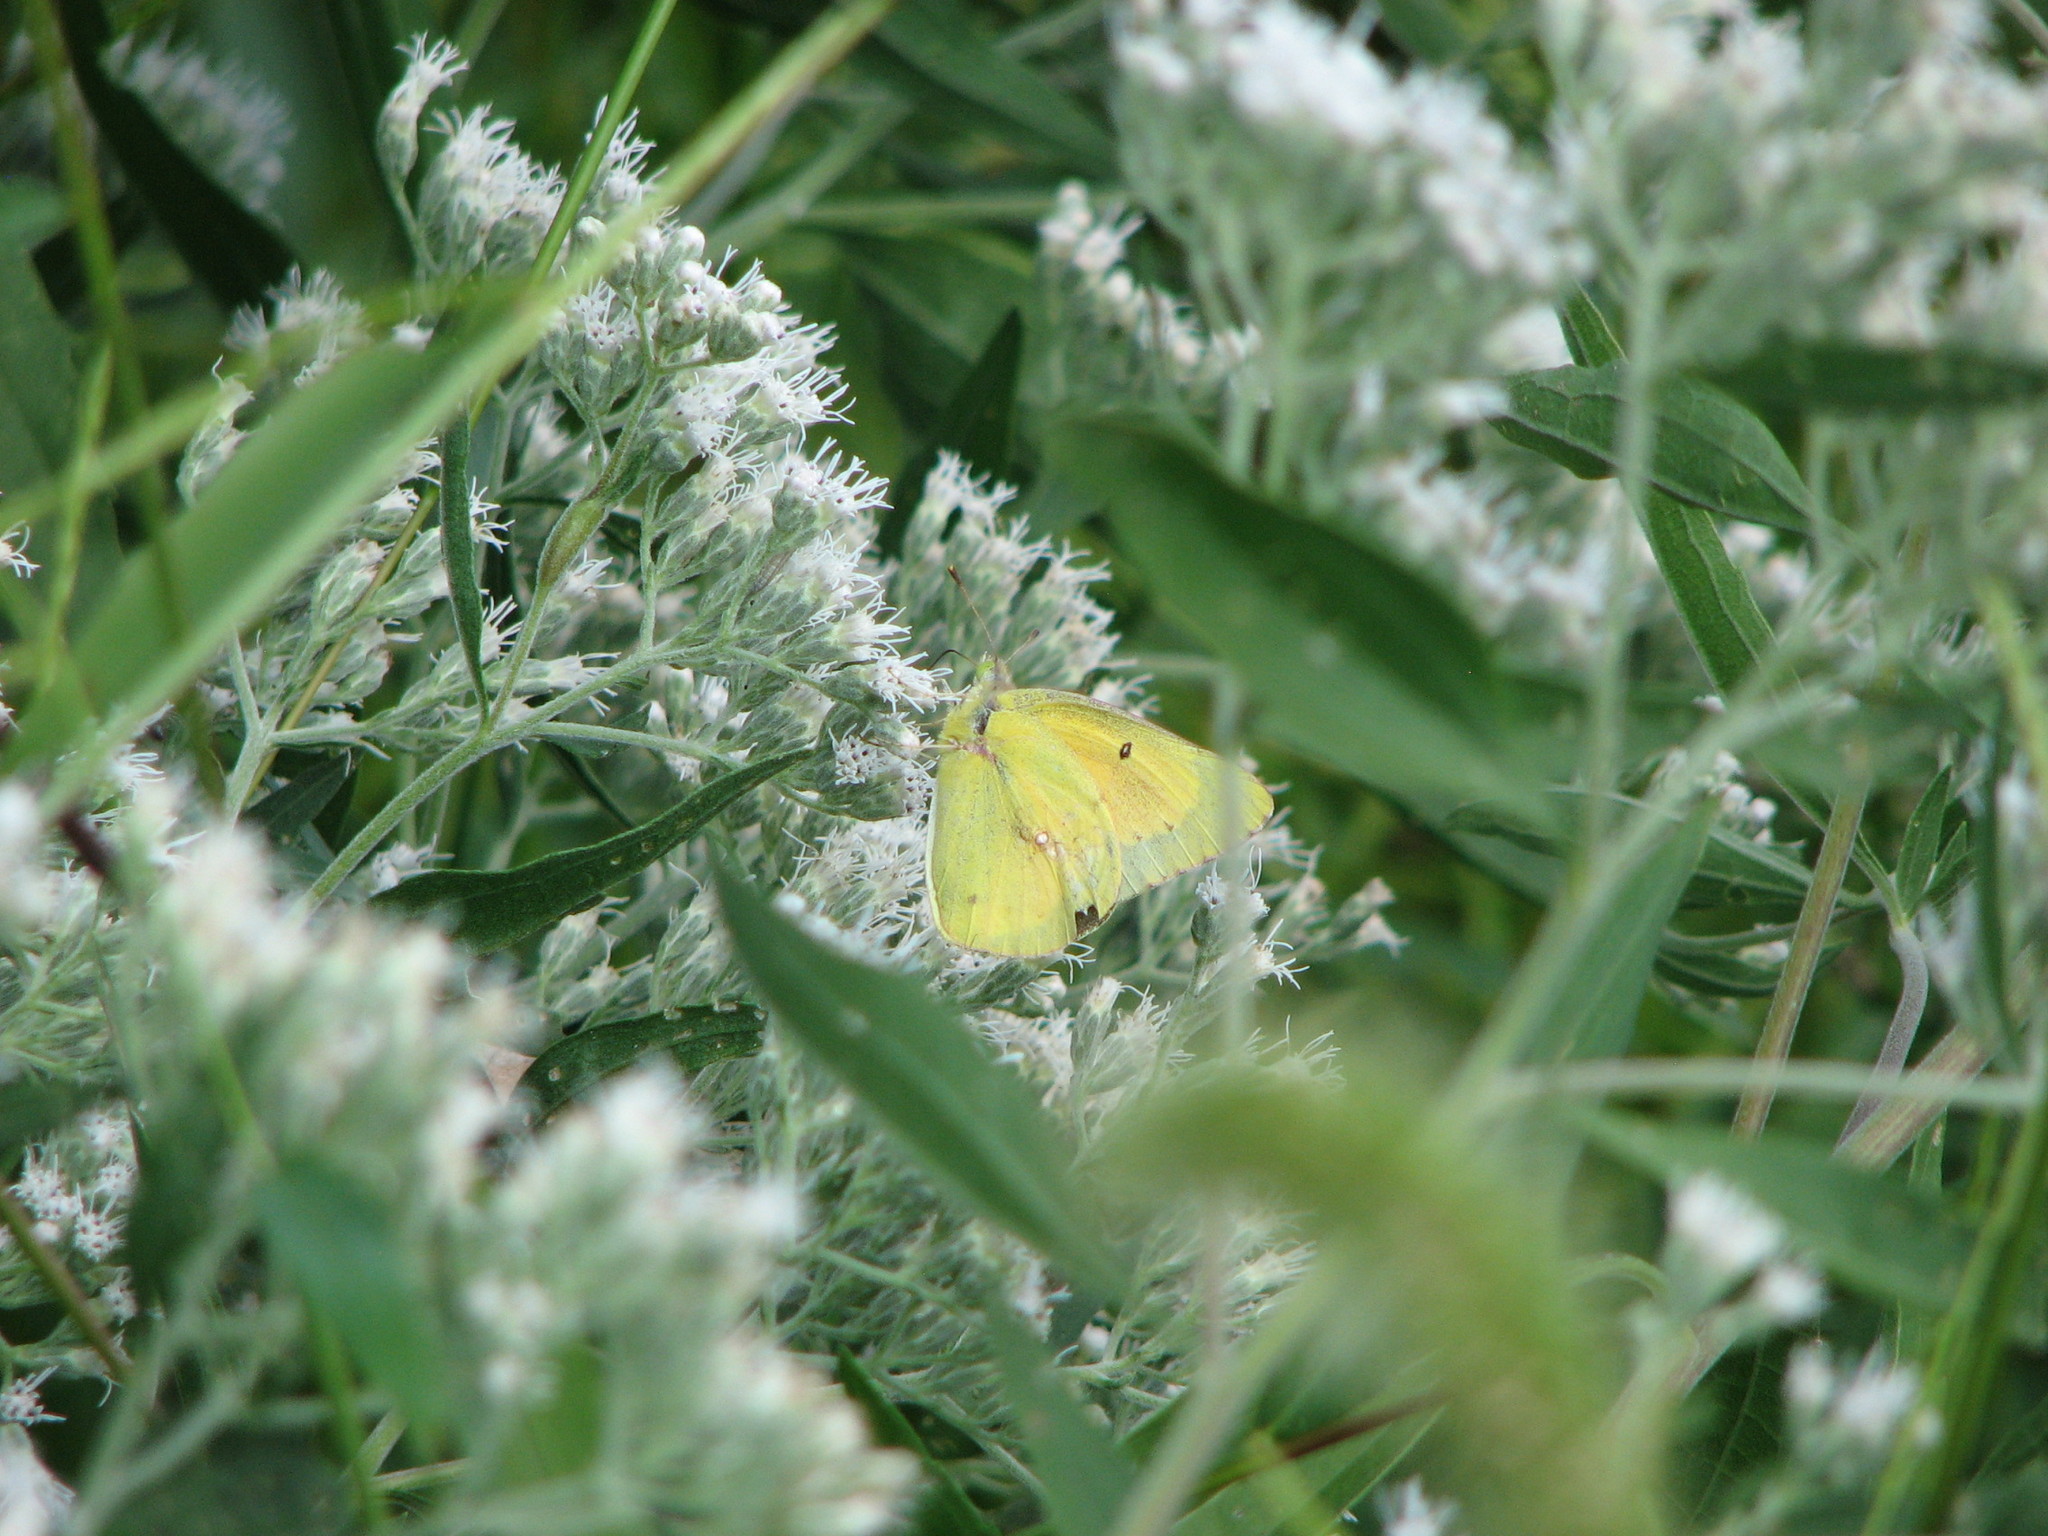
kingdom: Animalia
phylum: Arthropoda
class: Insecta
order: Lepidoptera
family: Pieridae
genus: Colias
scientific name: Colias eurytheme
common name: Alfalfa butterfly
